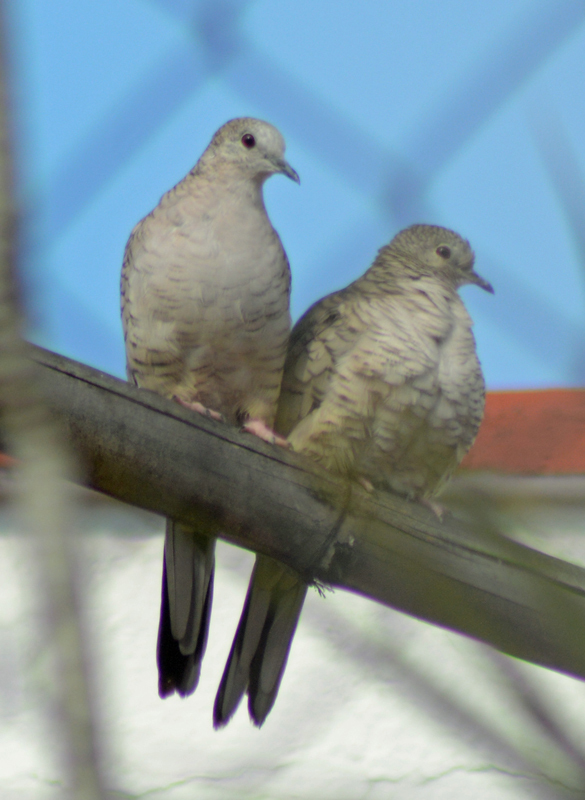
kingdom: Animalia
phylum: Chordata
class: Aves
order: Columbiformes
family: Columbidae
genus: Columbina
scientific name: Columbina inca
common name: Inca dove
